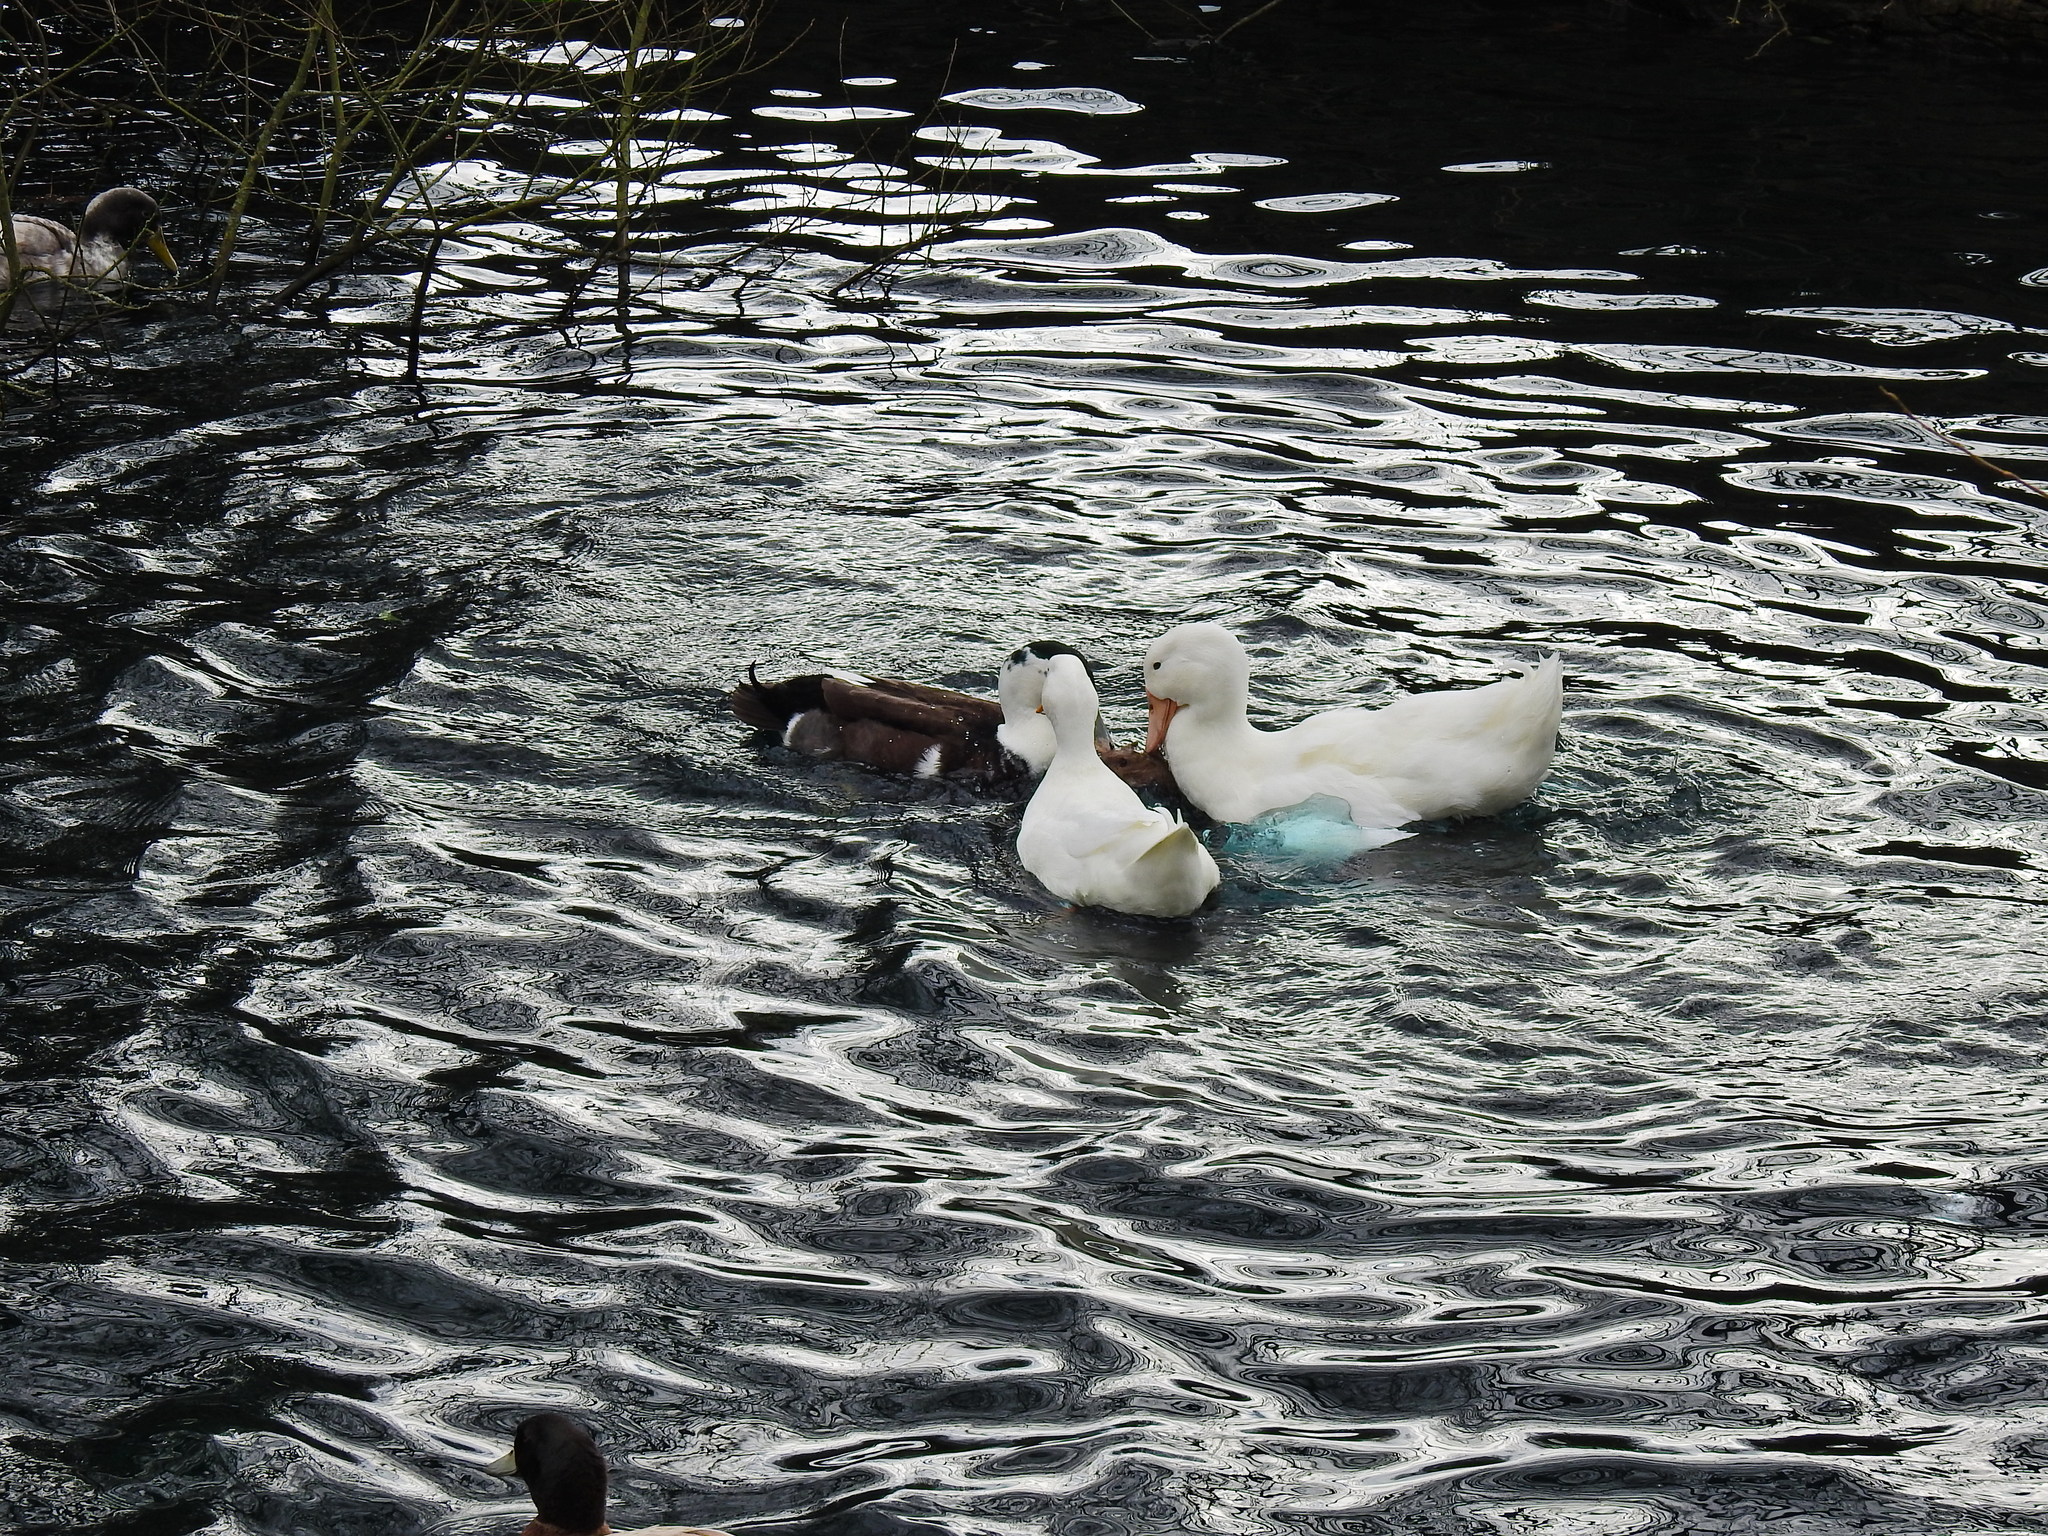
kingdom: Animalia
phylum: Chordata
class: Aves
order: Anseriformes
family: Anatidae
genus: Anas
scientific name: Anas platyrhynchos
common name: Mallard
